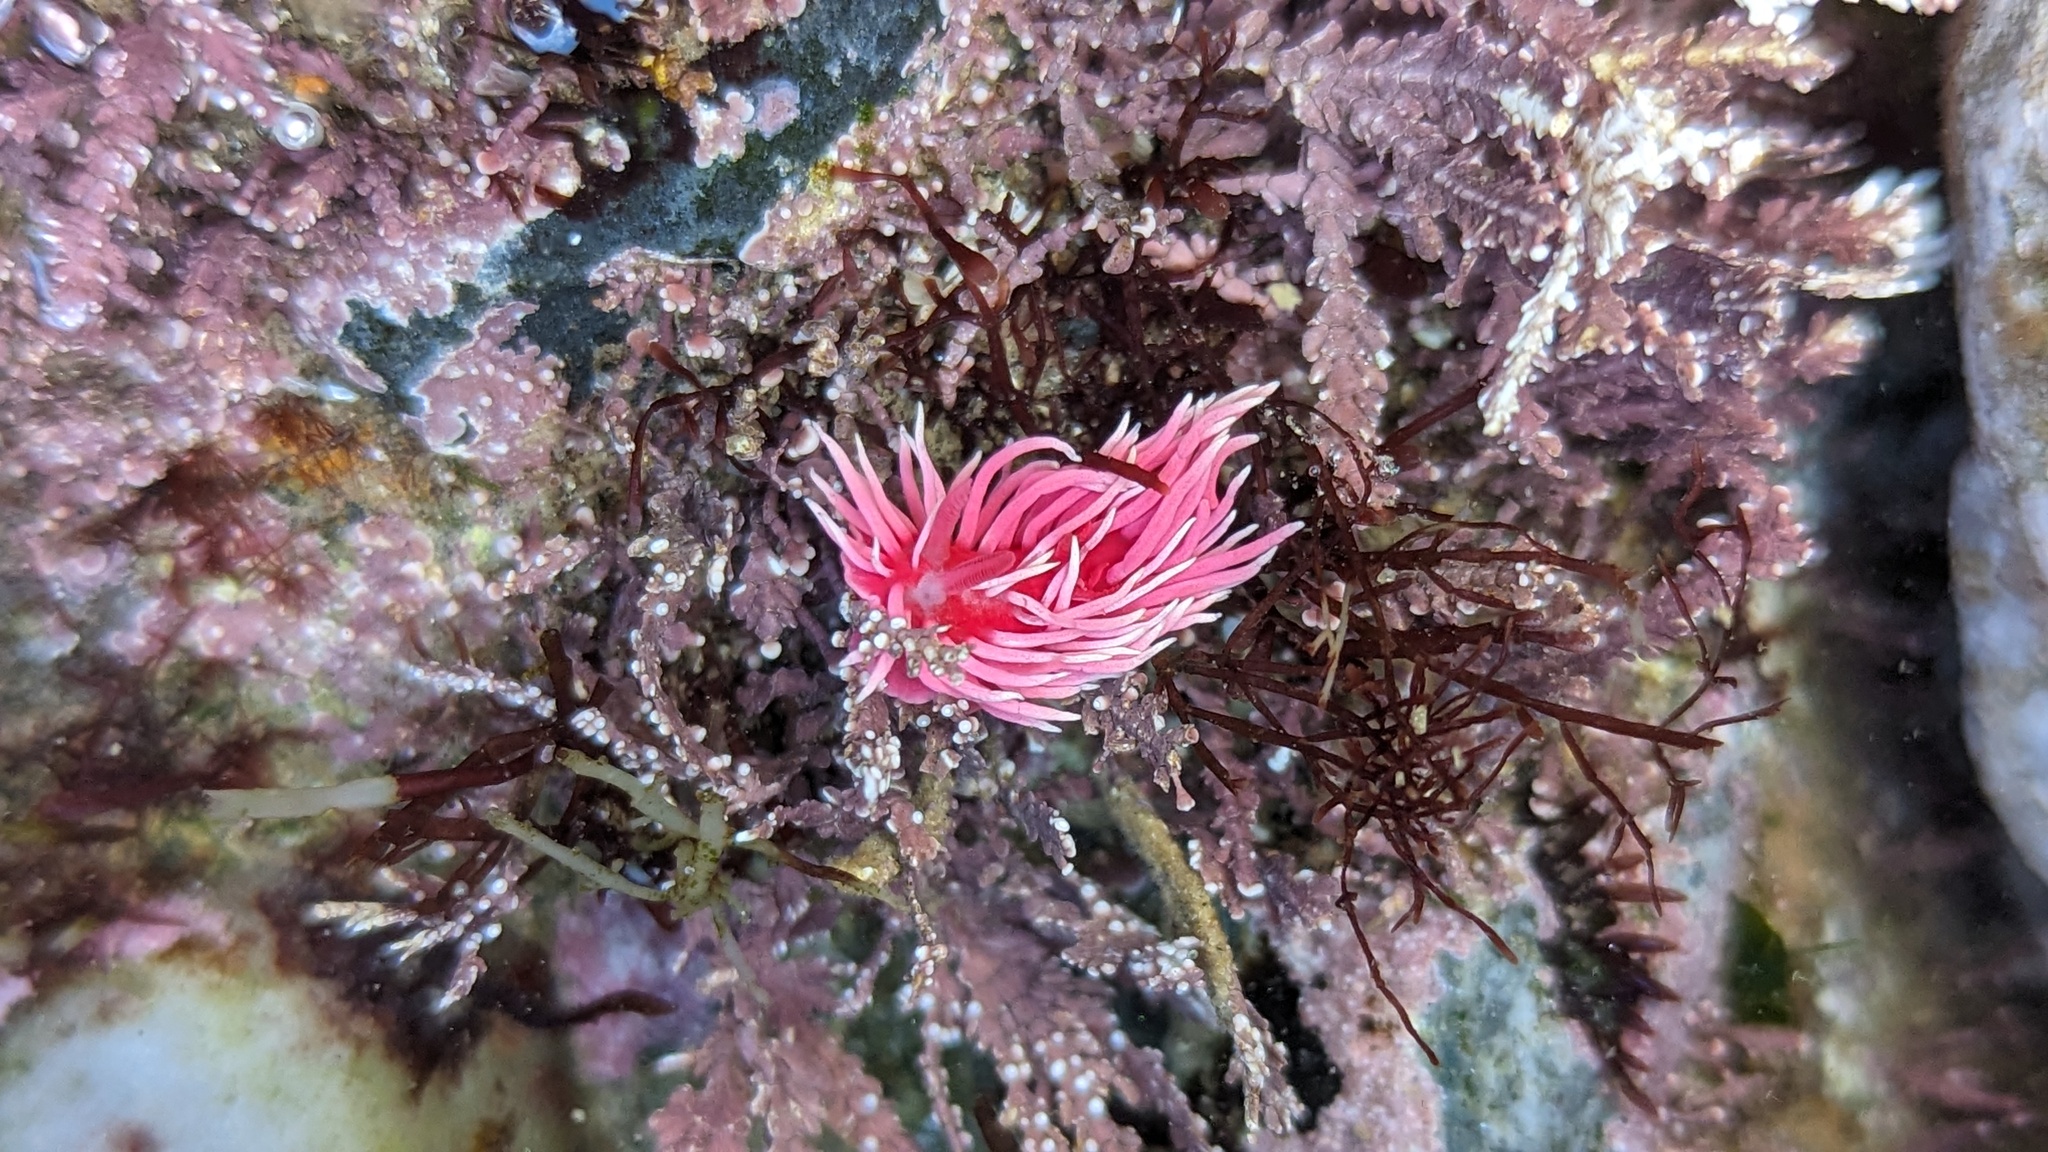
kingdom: Animalia
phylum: Mollusca
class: Gastropoda
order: Nudibranchia
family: Goniodorididae
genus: Okenia
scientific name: Okenia
